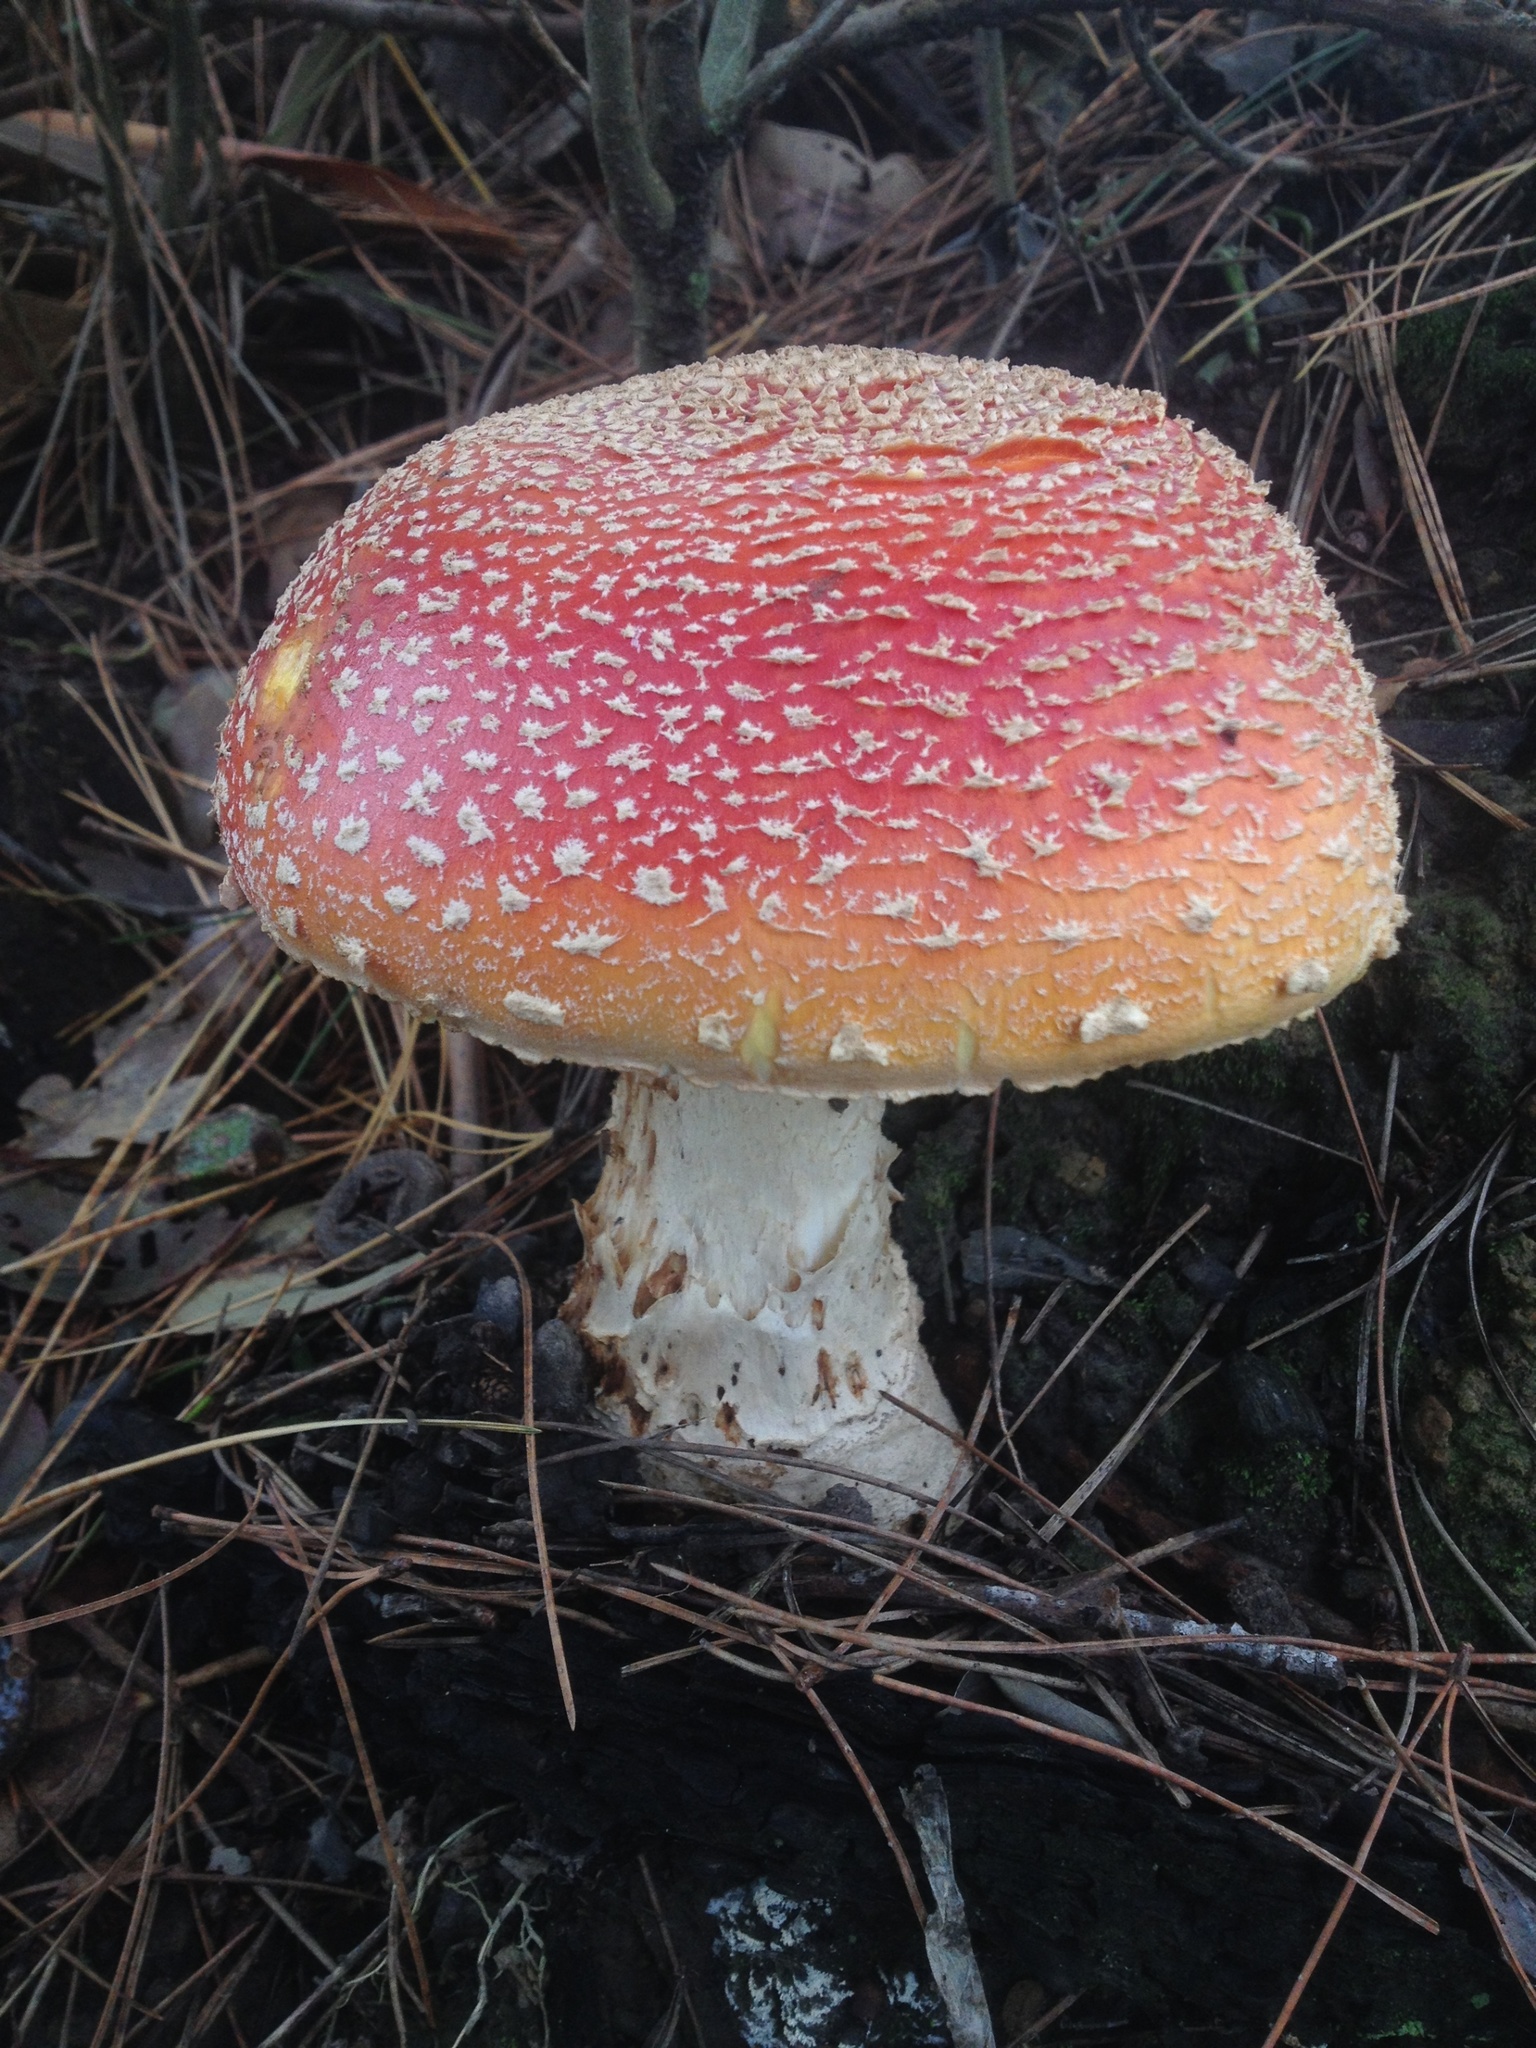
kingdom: Fungi
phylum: Basidiomycota
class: Agaricomycetes
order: Agaricales
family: Amanitaceae
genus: Amanita
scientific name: Amanita muscaria
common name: Fly agaric
